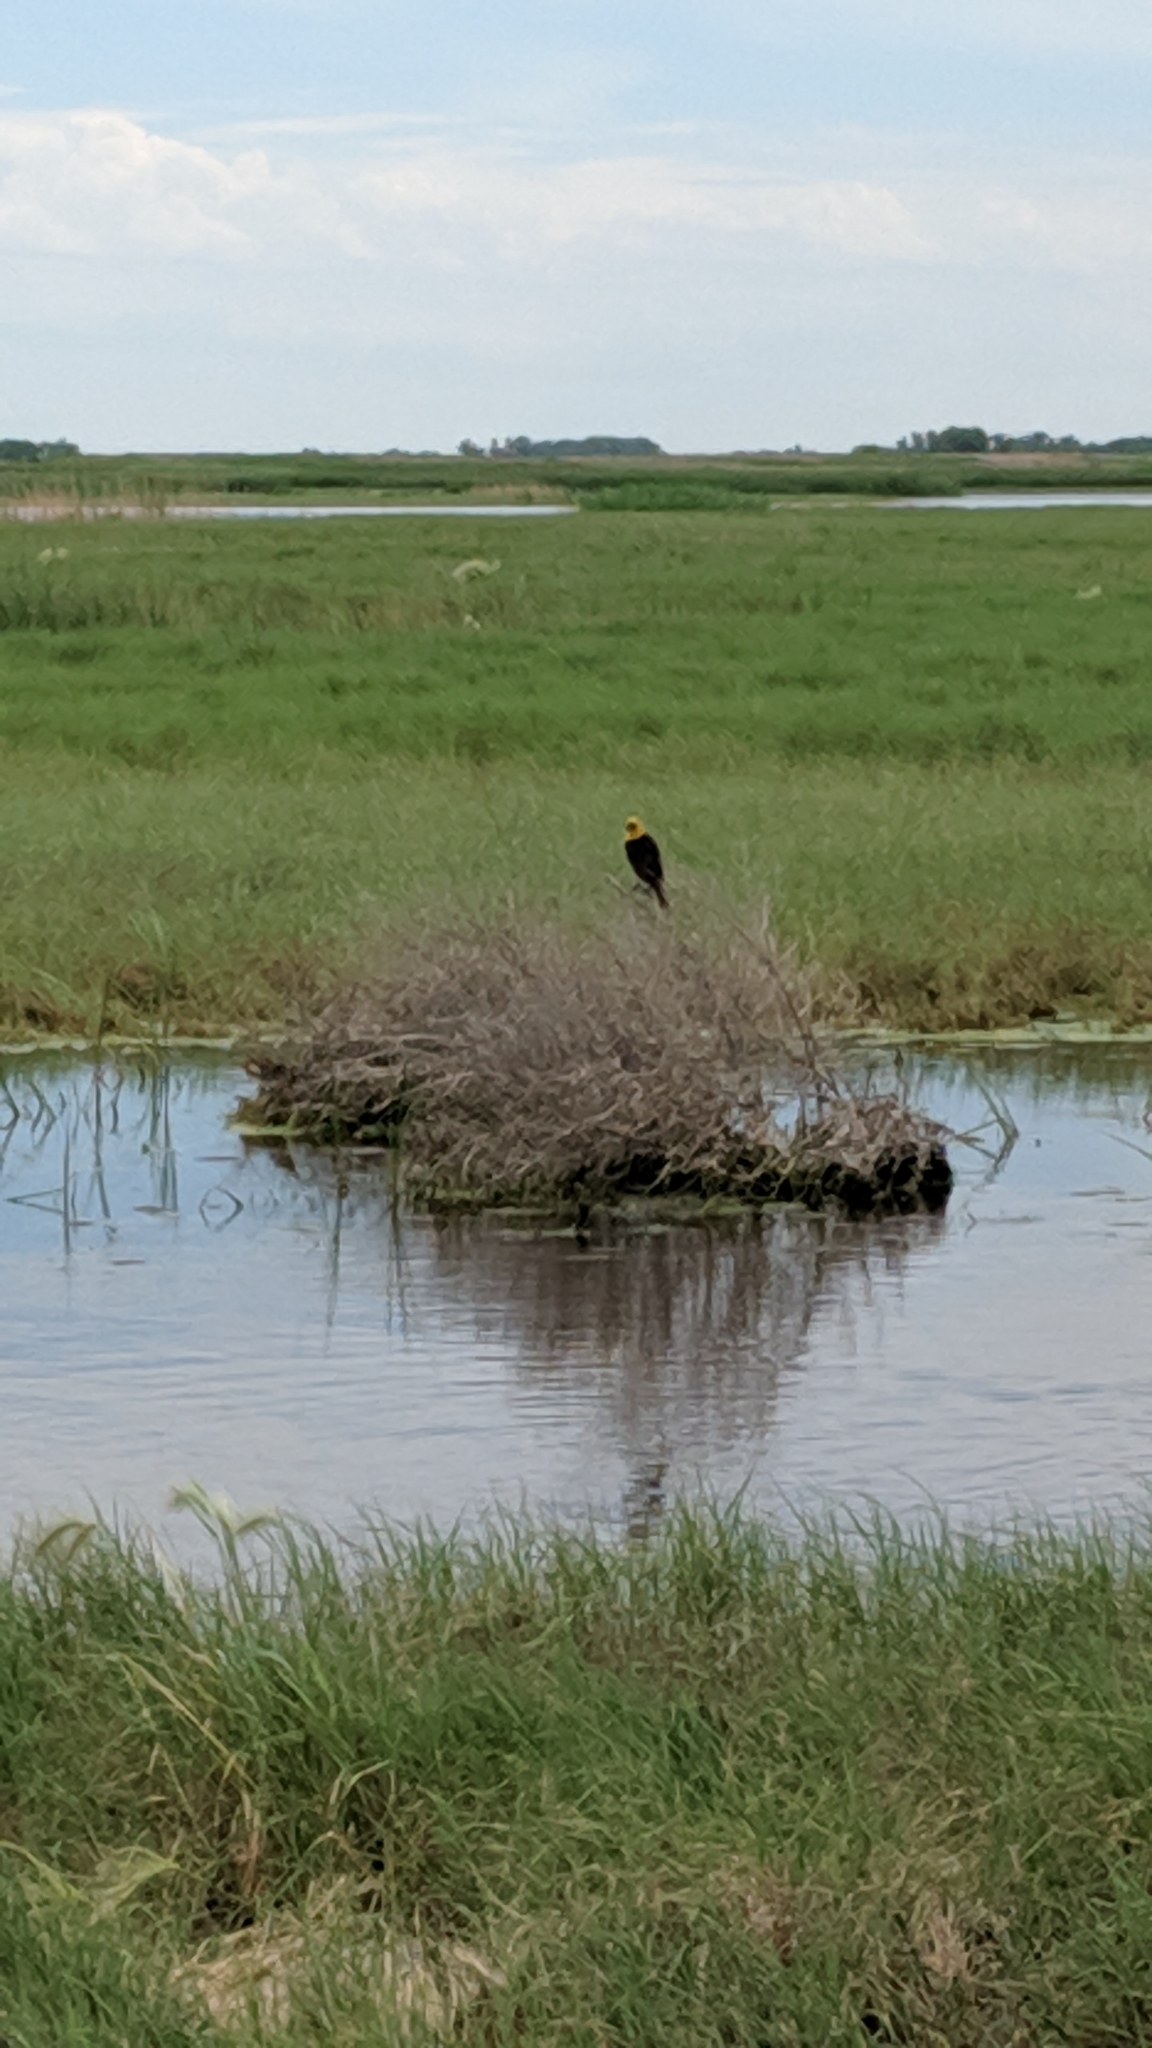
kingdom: Animalia
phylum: Chordata
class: Aves
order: Passeriformes
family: Icteridae
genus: Xanthocephalus
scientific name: Xanthocephalus xanthocephalus
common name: Yellow-headed blackbird
